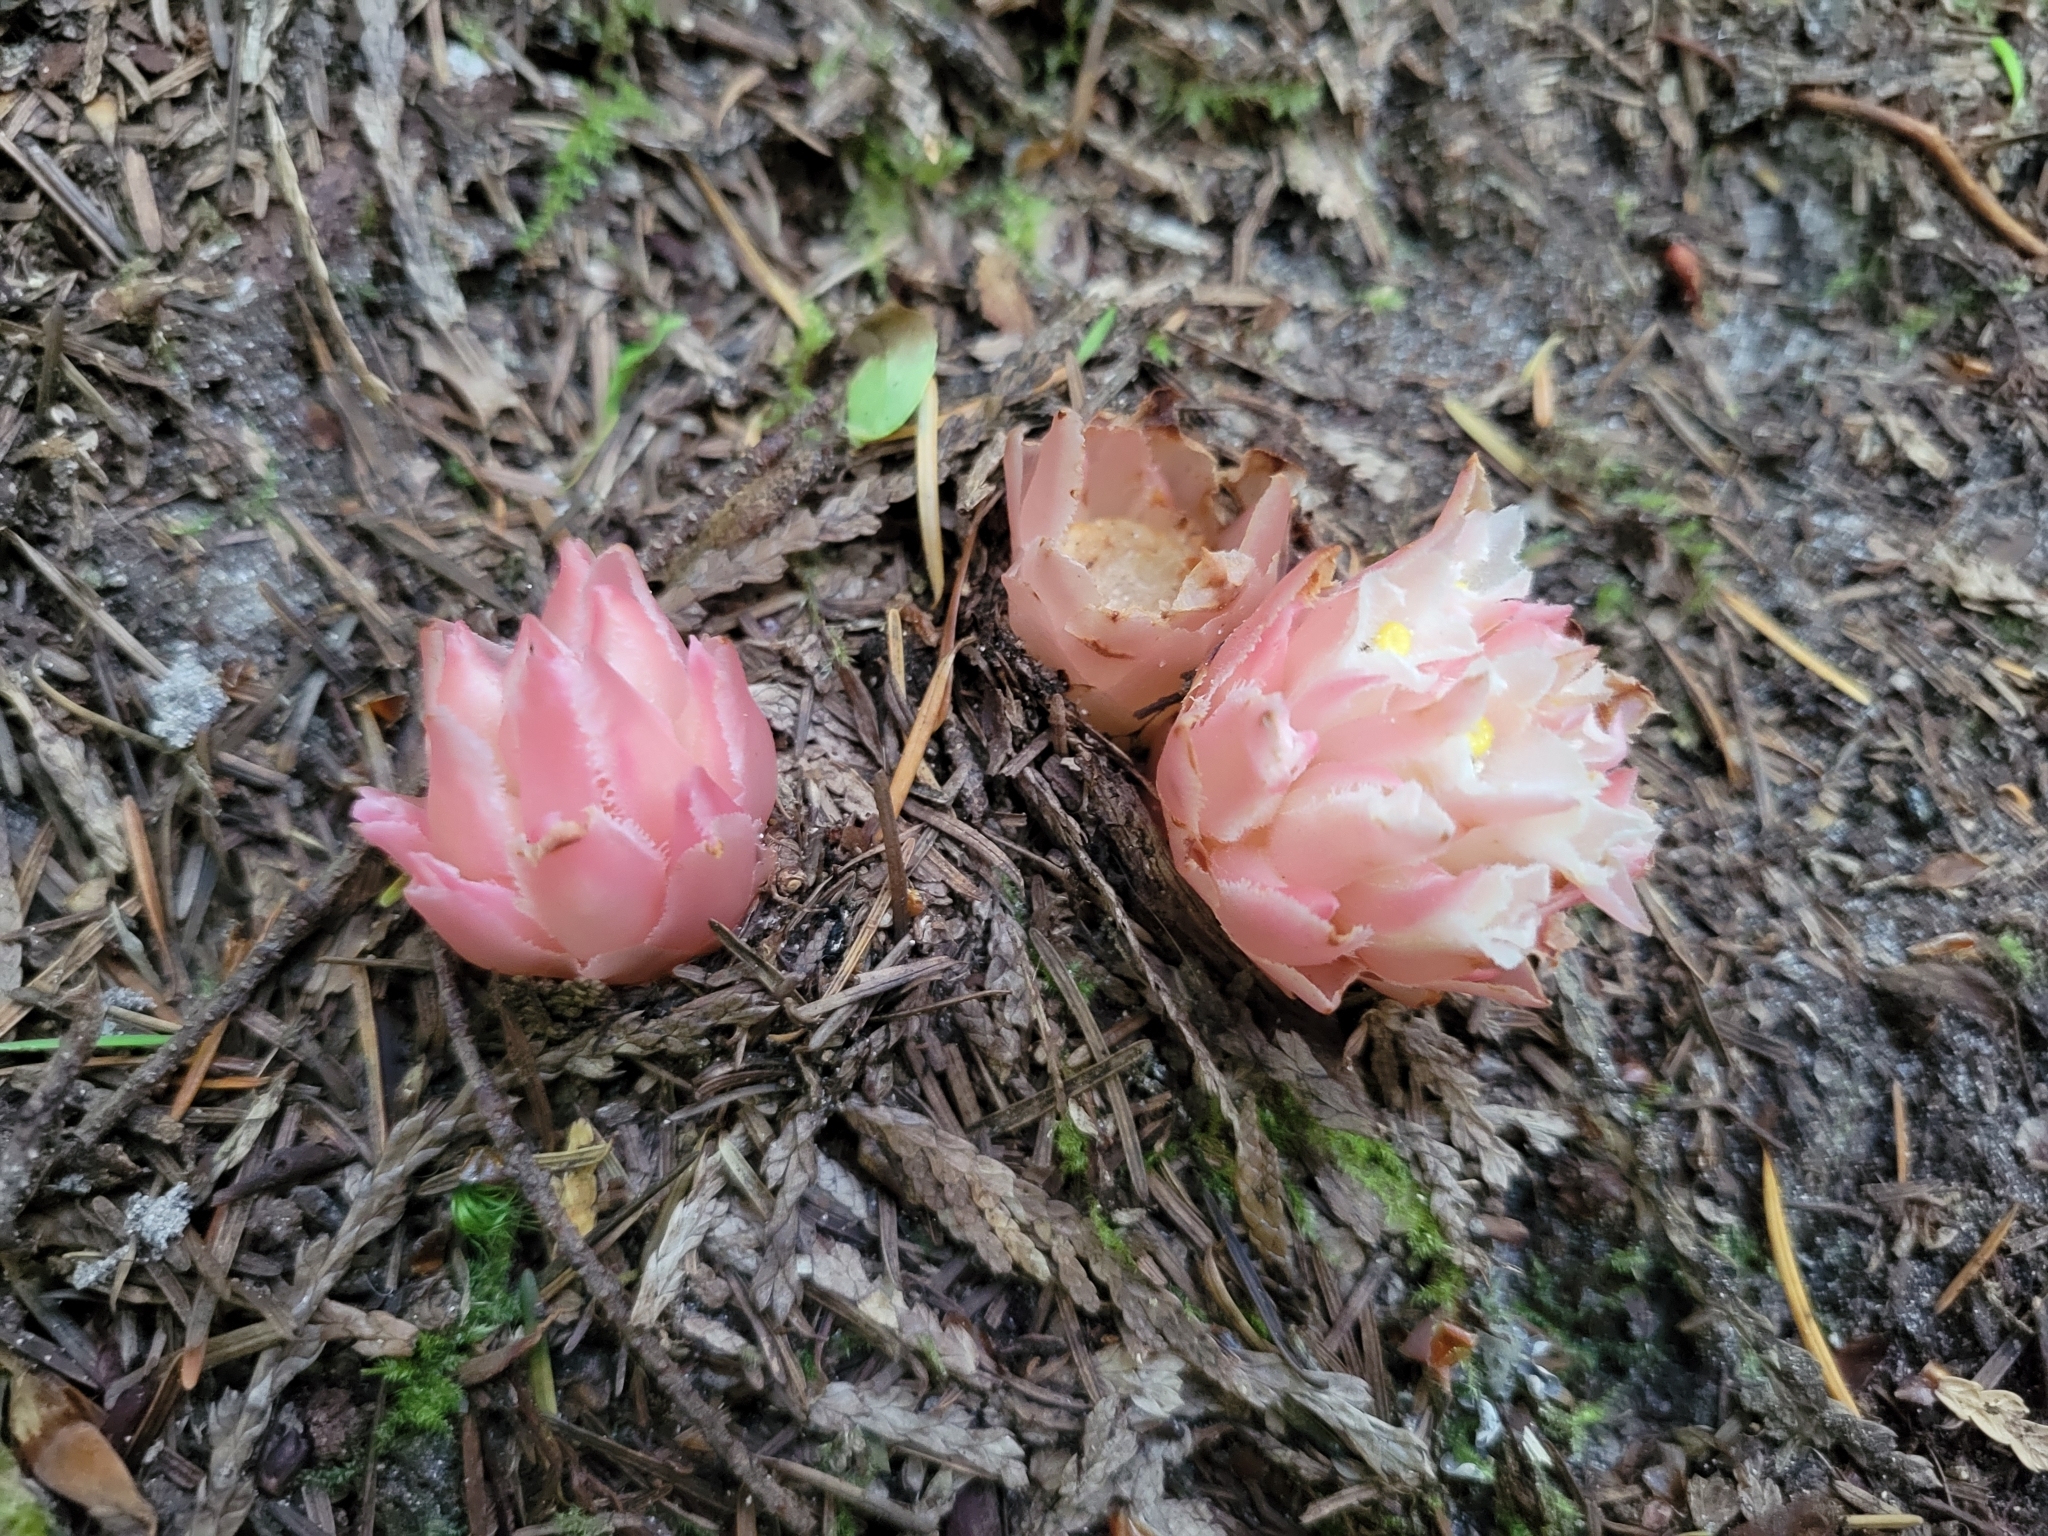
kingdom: Plantae
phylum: Tracheophyta
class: Magnoliopsida
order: Ericales
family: Ericaceae
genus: Hemitomes
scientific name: Hemitomes congestum
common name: Cone plant
